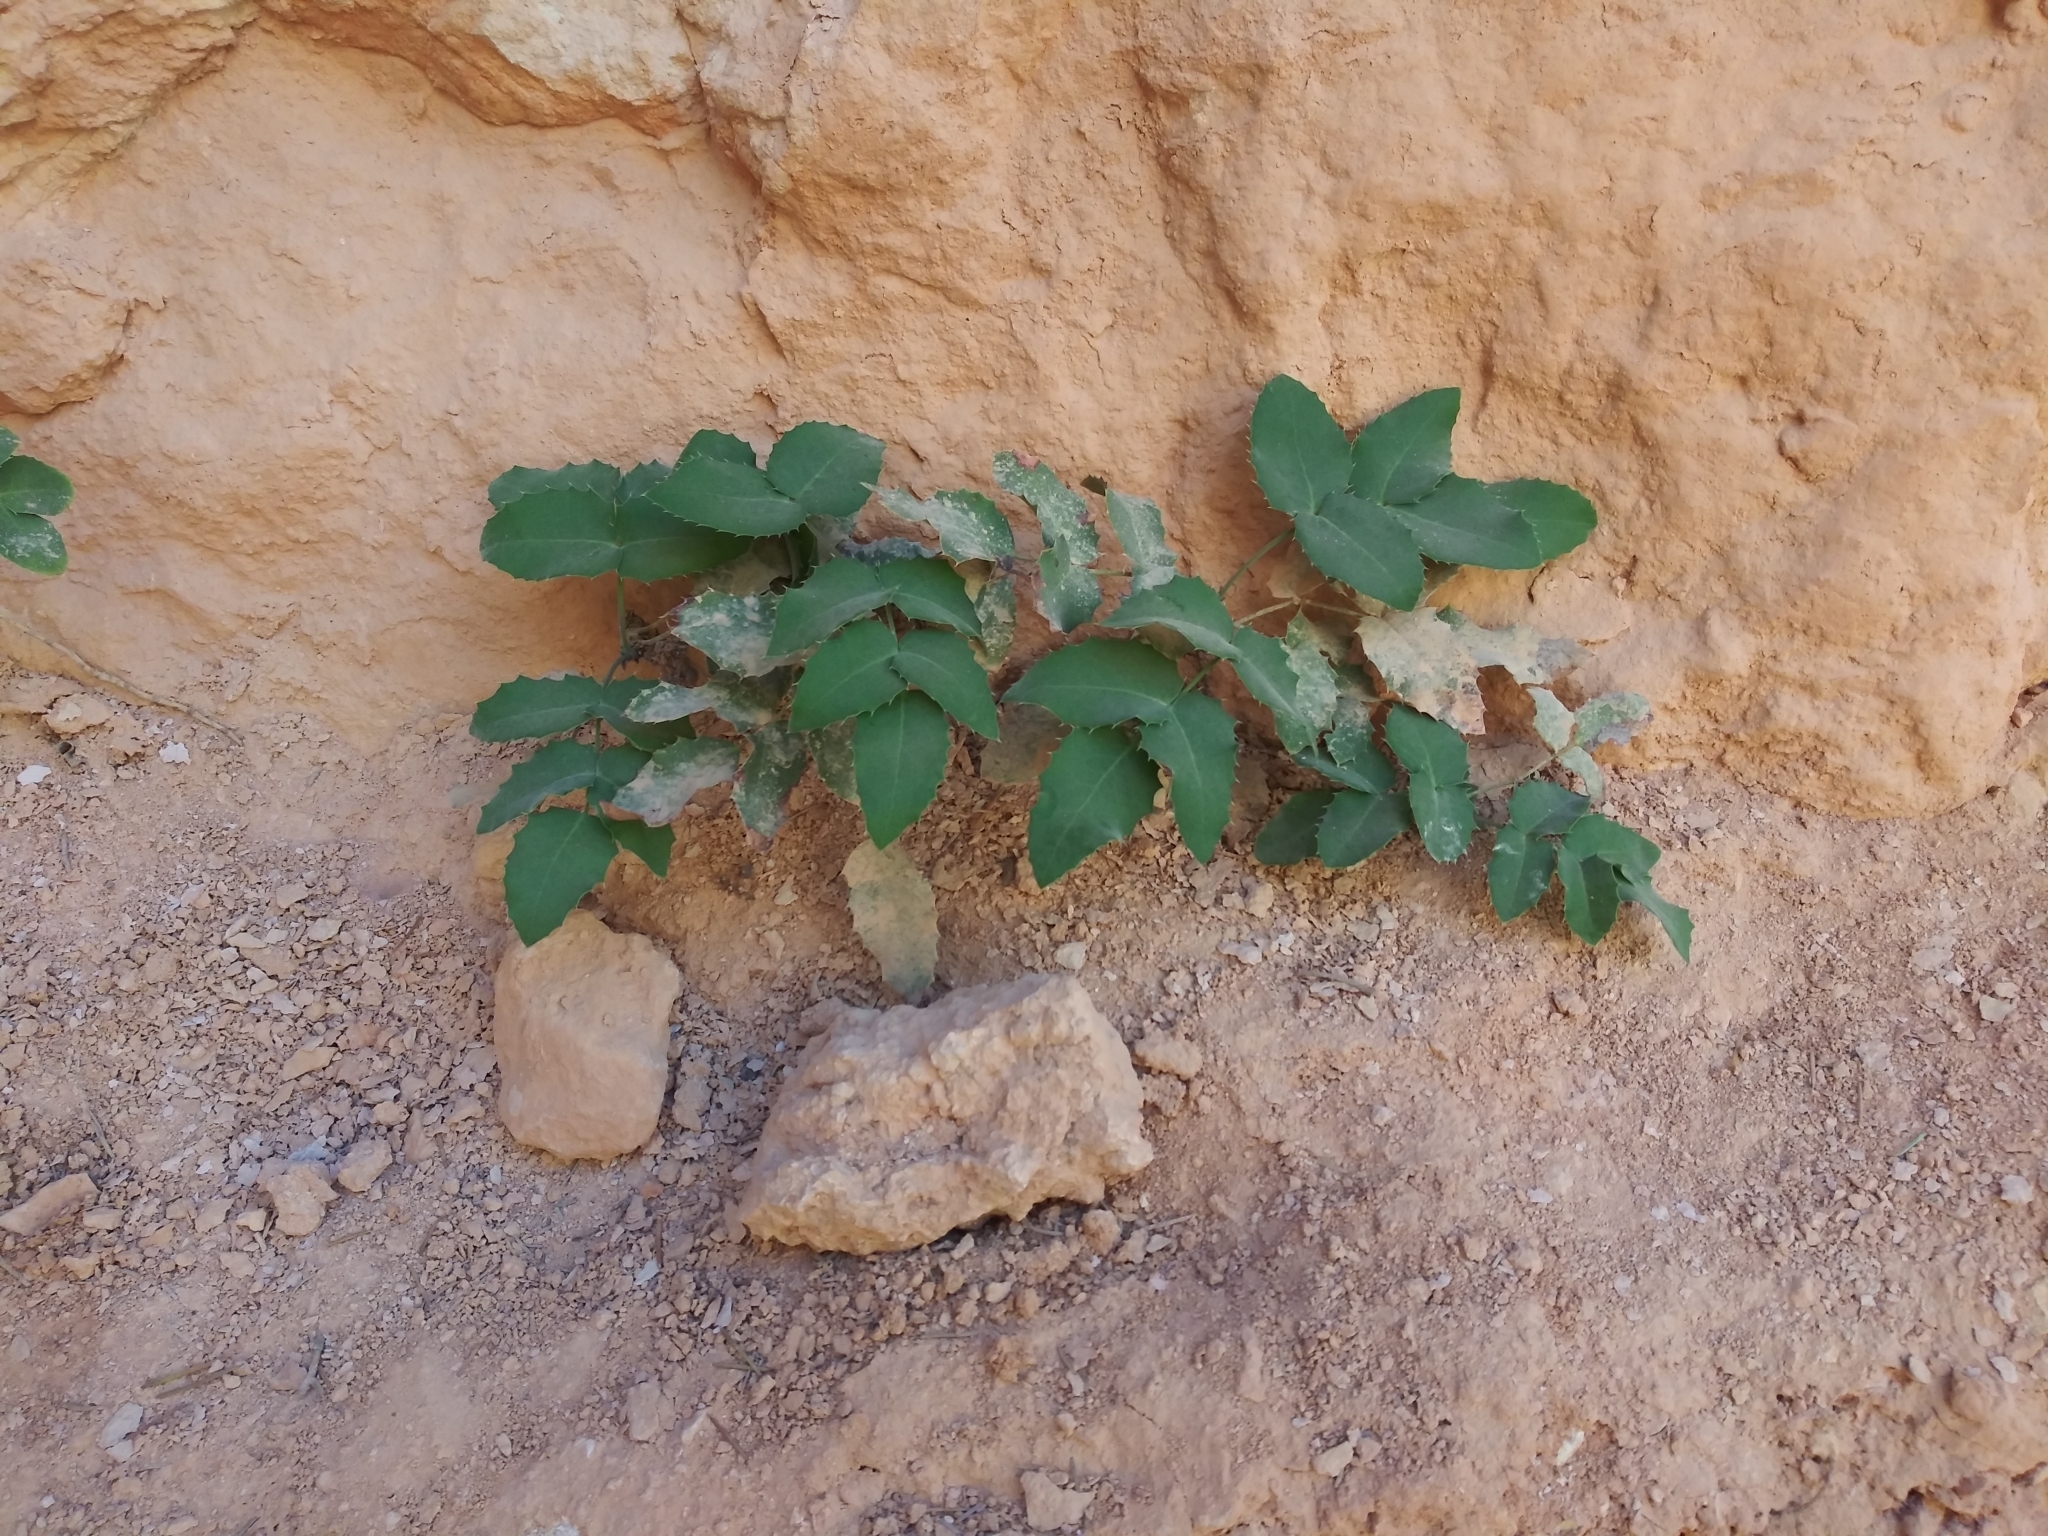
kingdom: Plantae
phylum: Tracheophyta
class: Magnoliopsida
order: Ranunculales
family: Berberidaceae
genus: Mahonia
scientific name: Mahonia repens
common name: Creeping oregon-grape
